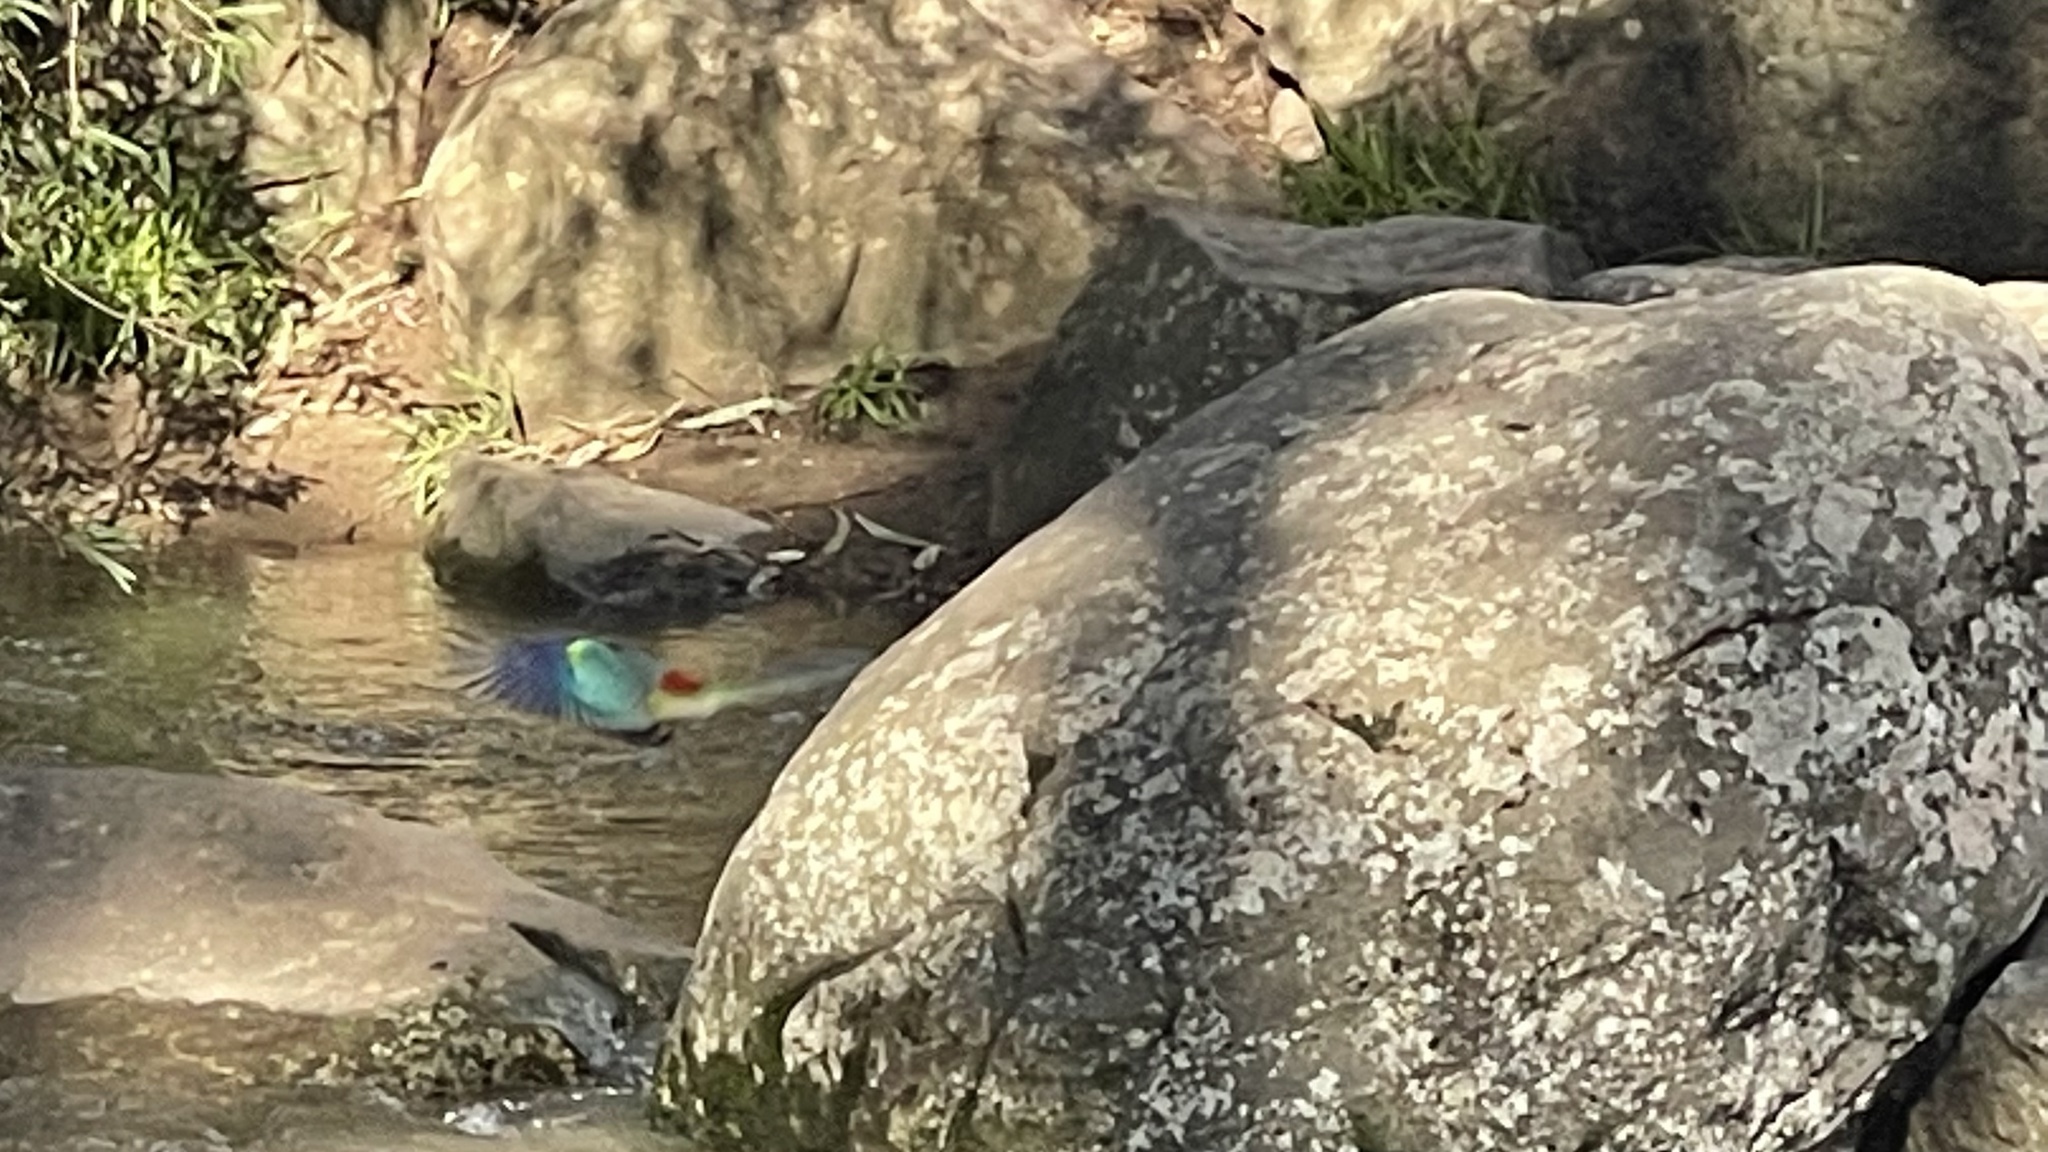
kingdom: Animalia
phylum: Chordata
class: Aves
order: Psittaciformes
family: Psittacidae
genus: Psephotus
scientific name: Psephotus haematonotus
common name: Red-rumped parrot
